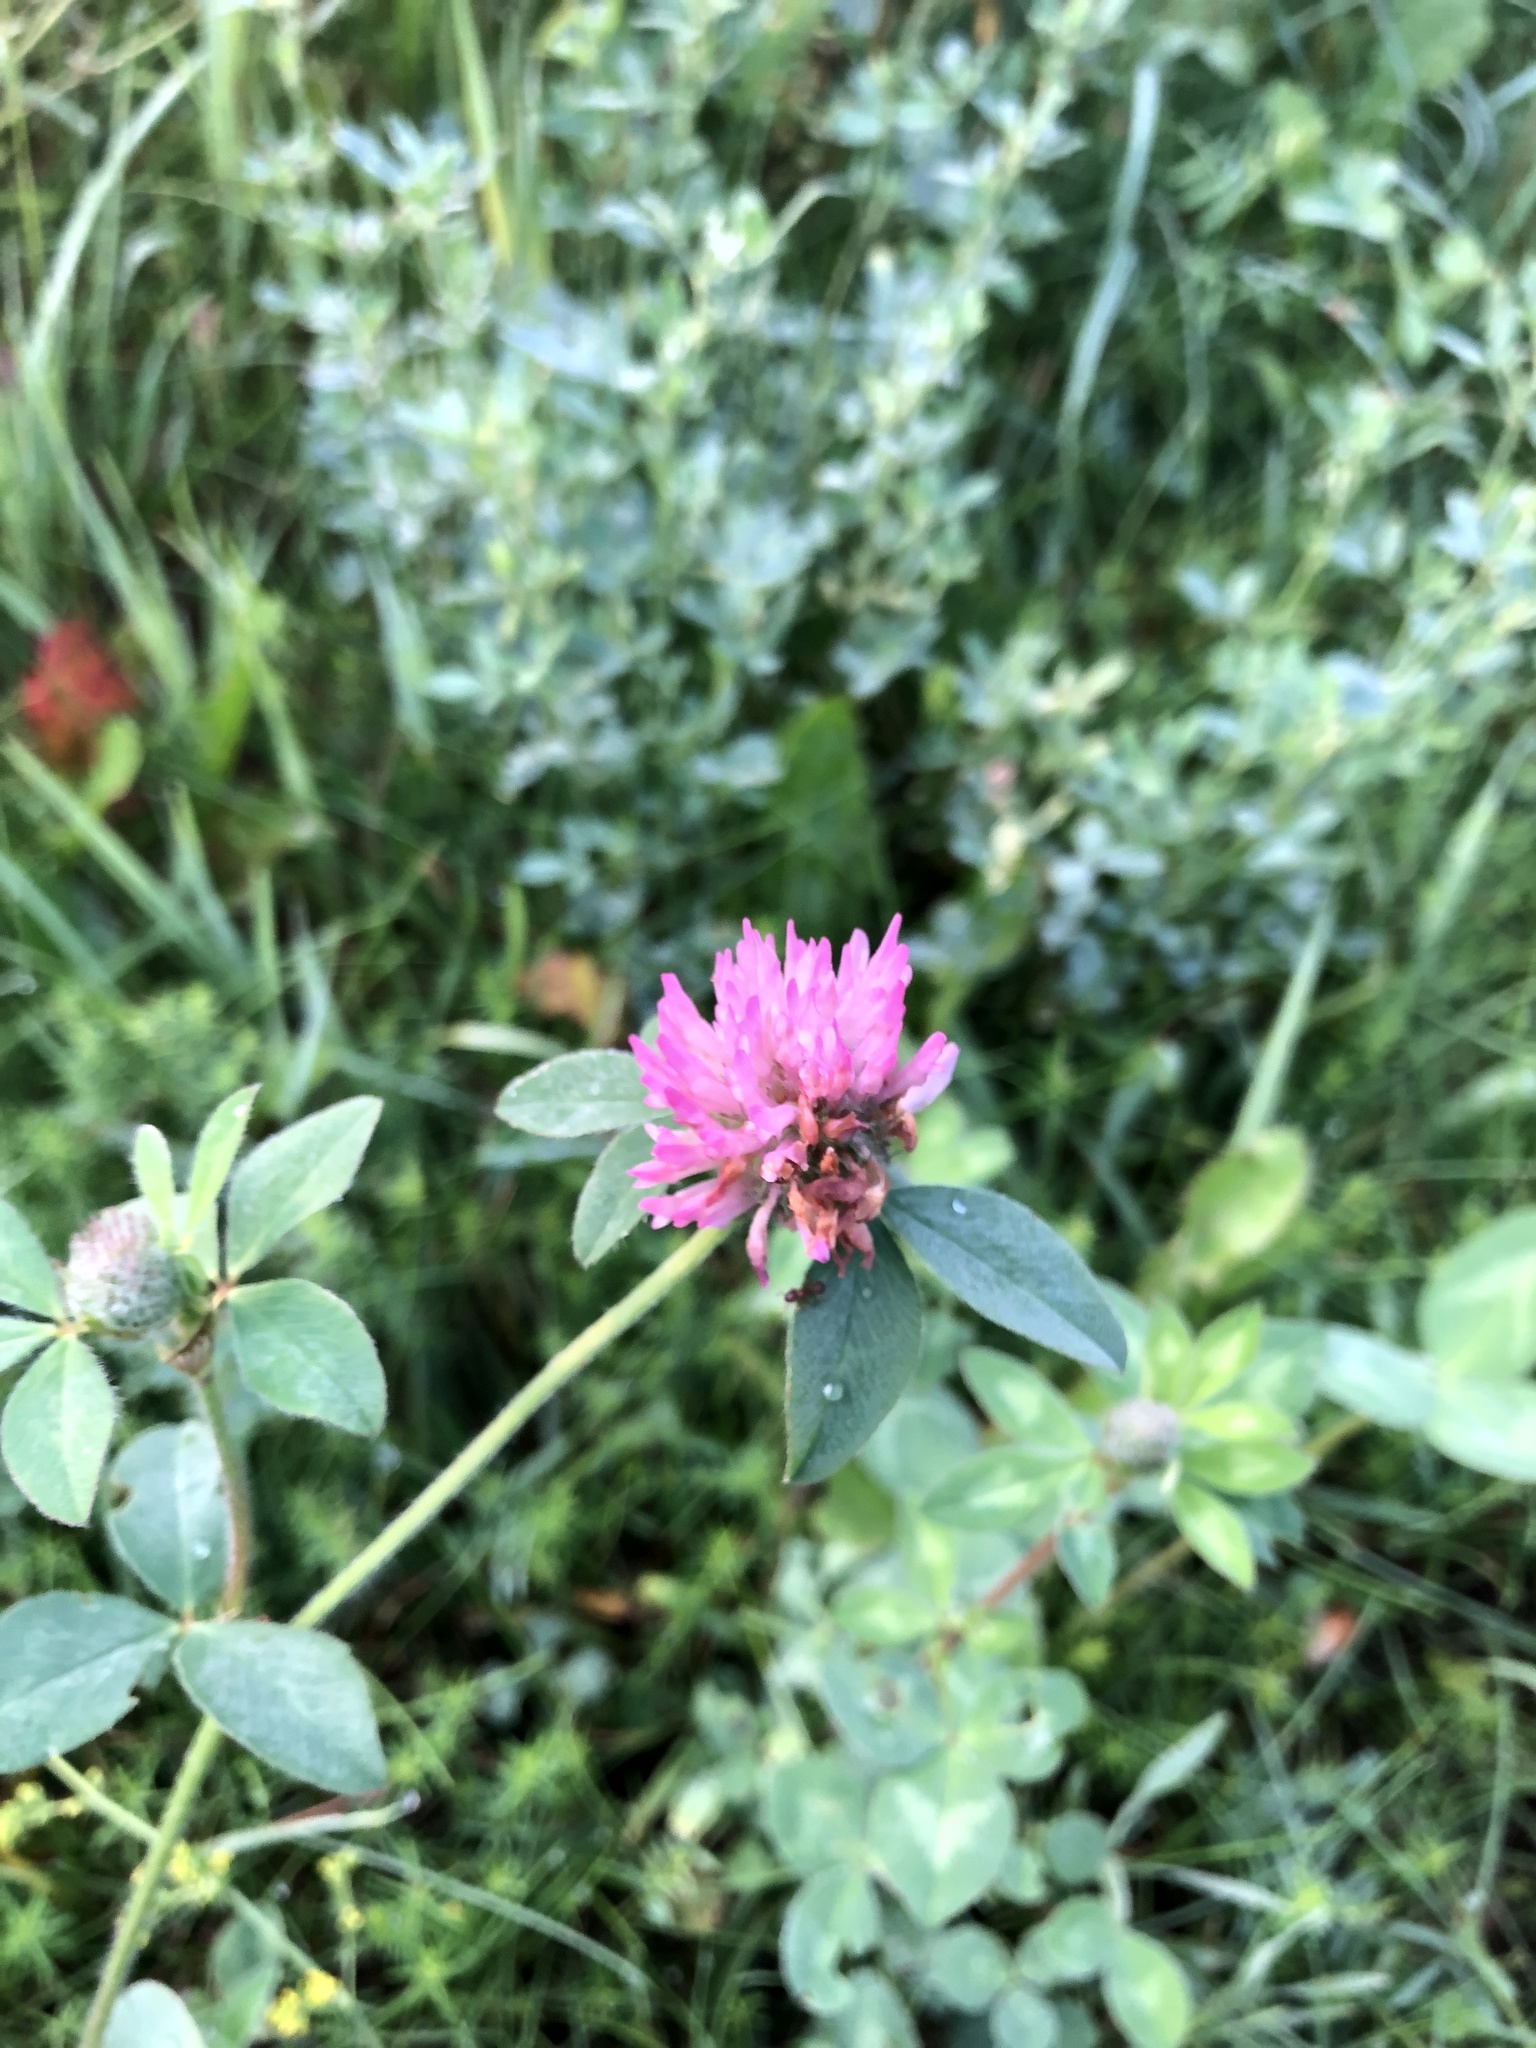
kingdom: Plantae
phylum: Tracheophyta
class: Magnoliopsida
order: Fabales
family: Fabaceae
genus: Trifolium
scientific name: Trifolium pratense
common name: Red clover
